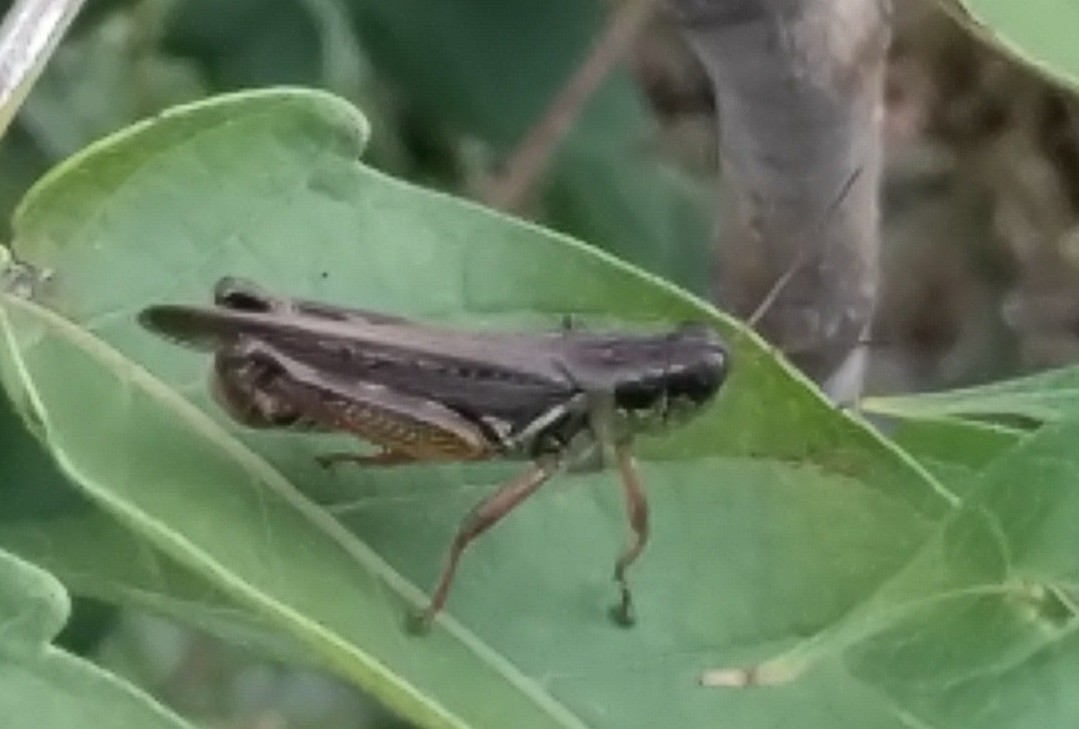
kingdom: Animalia
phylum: Arthropoda
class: Insecta
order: Orthoptera
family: Acrididae
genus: Melanoplus
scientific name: Melanoplus
